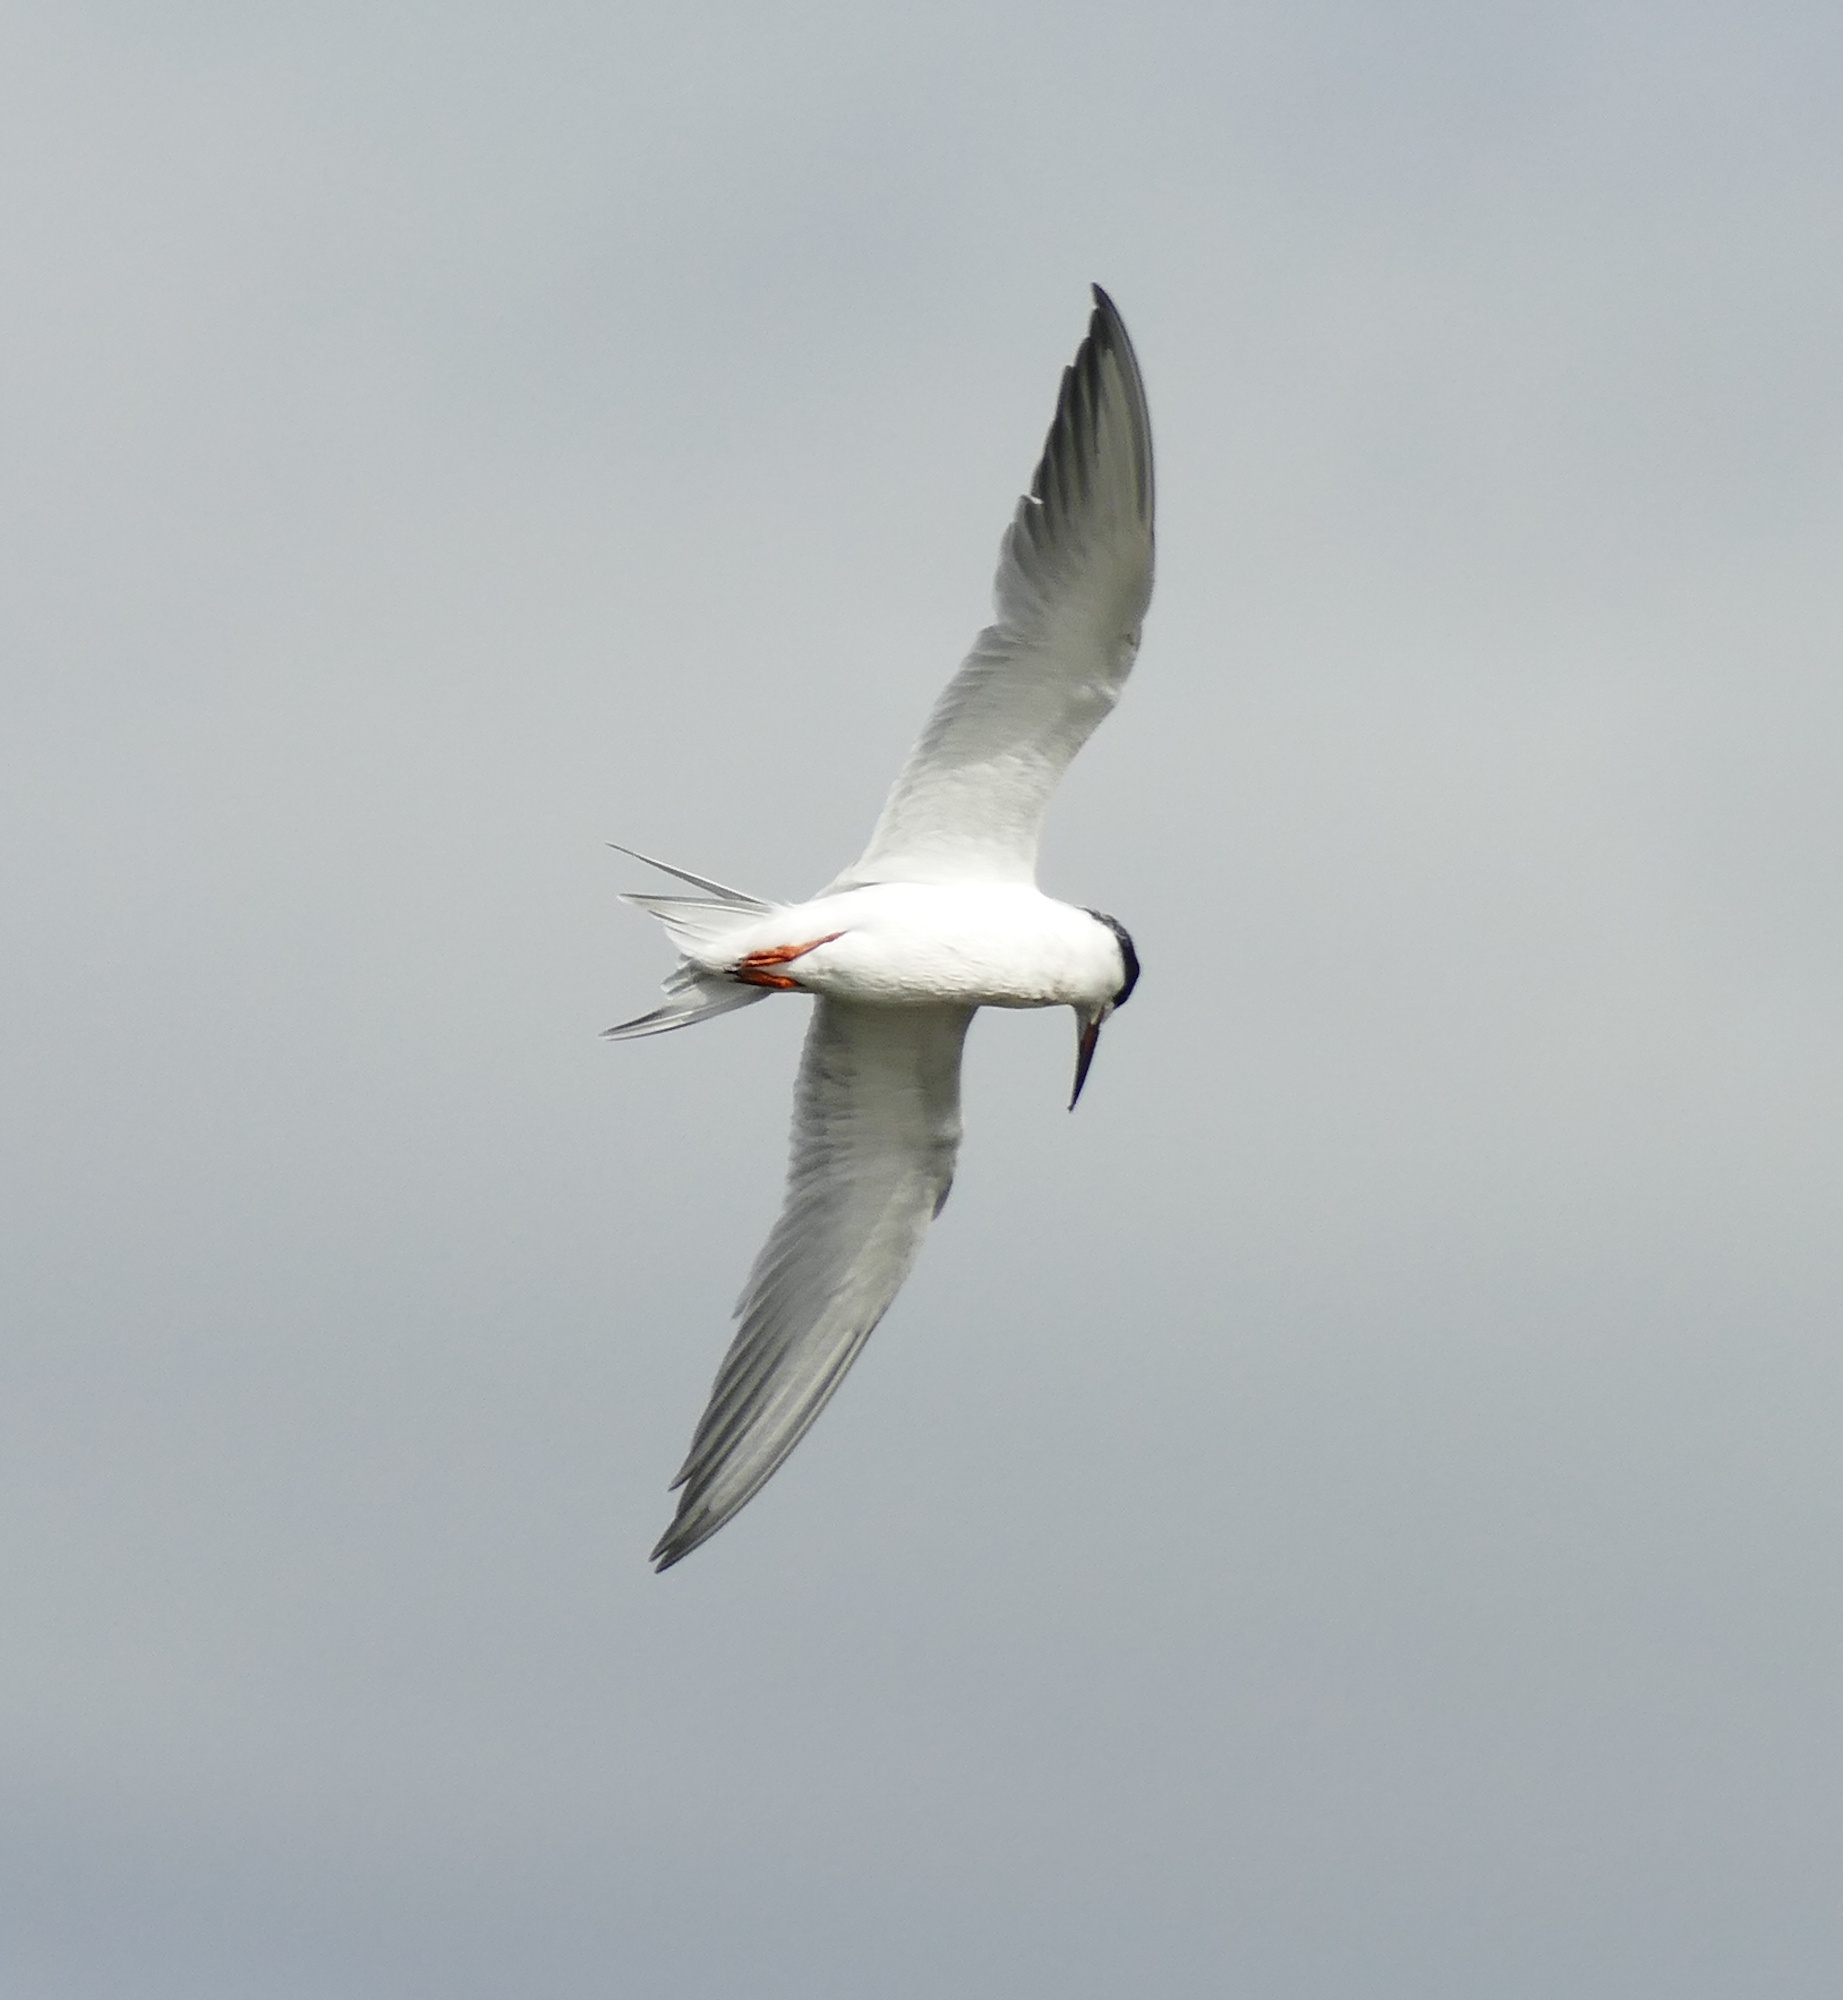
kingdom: Animalia
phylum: Chordata
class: Aves
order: Charadriiformes
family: Laridae
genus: Sterna
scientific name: Sterna forsteri
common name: Forster's tern
